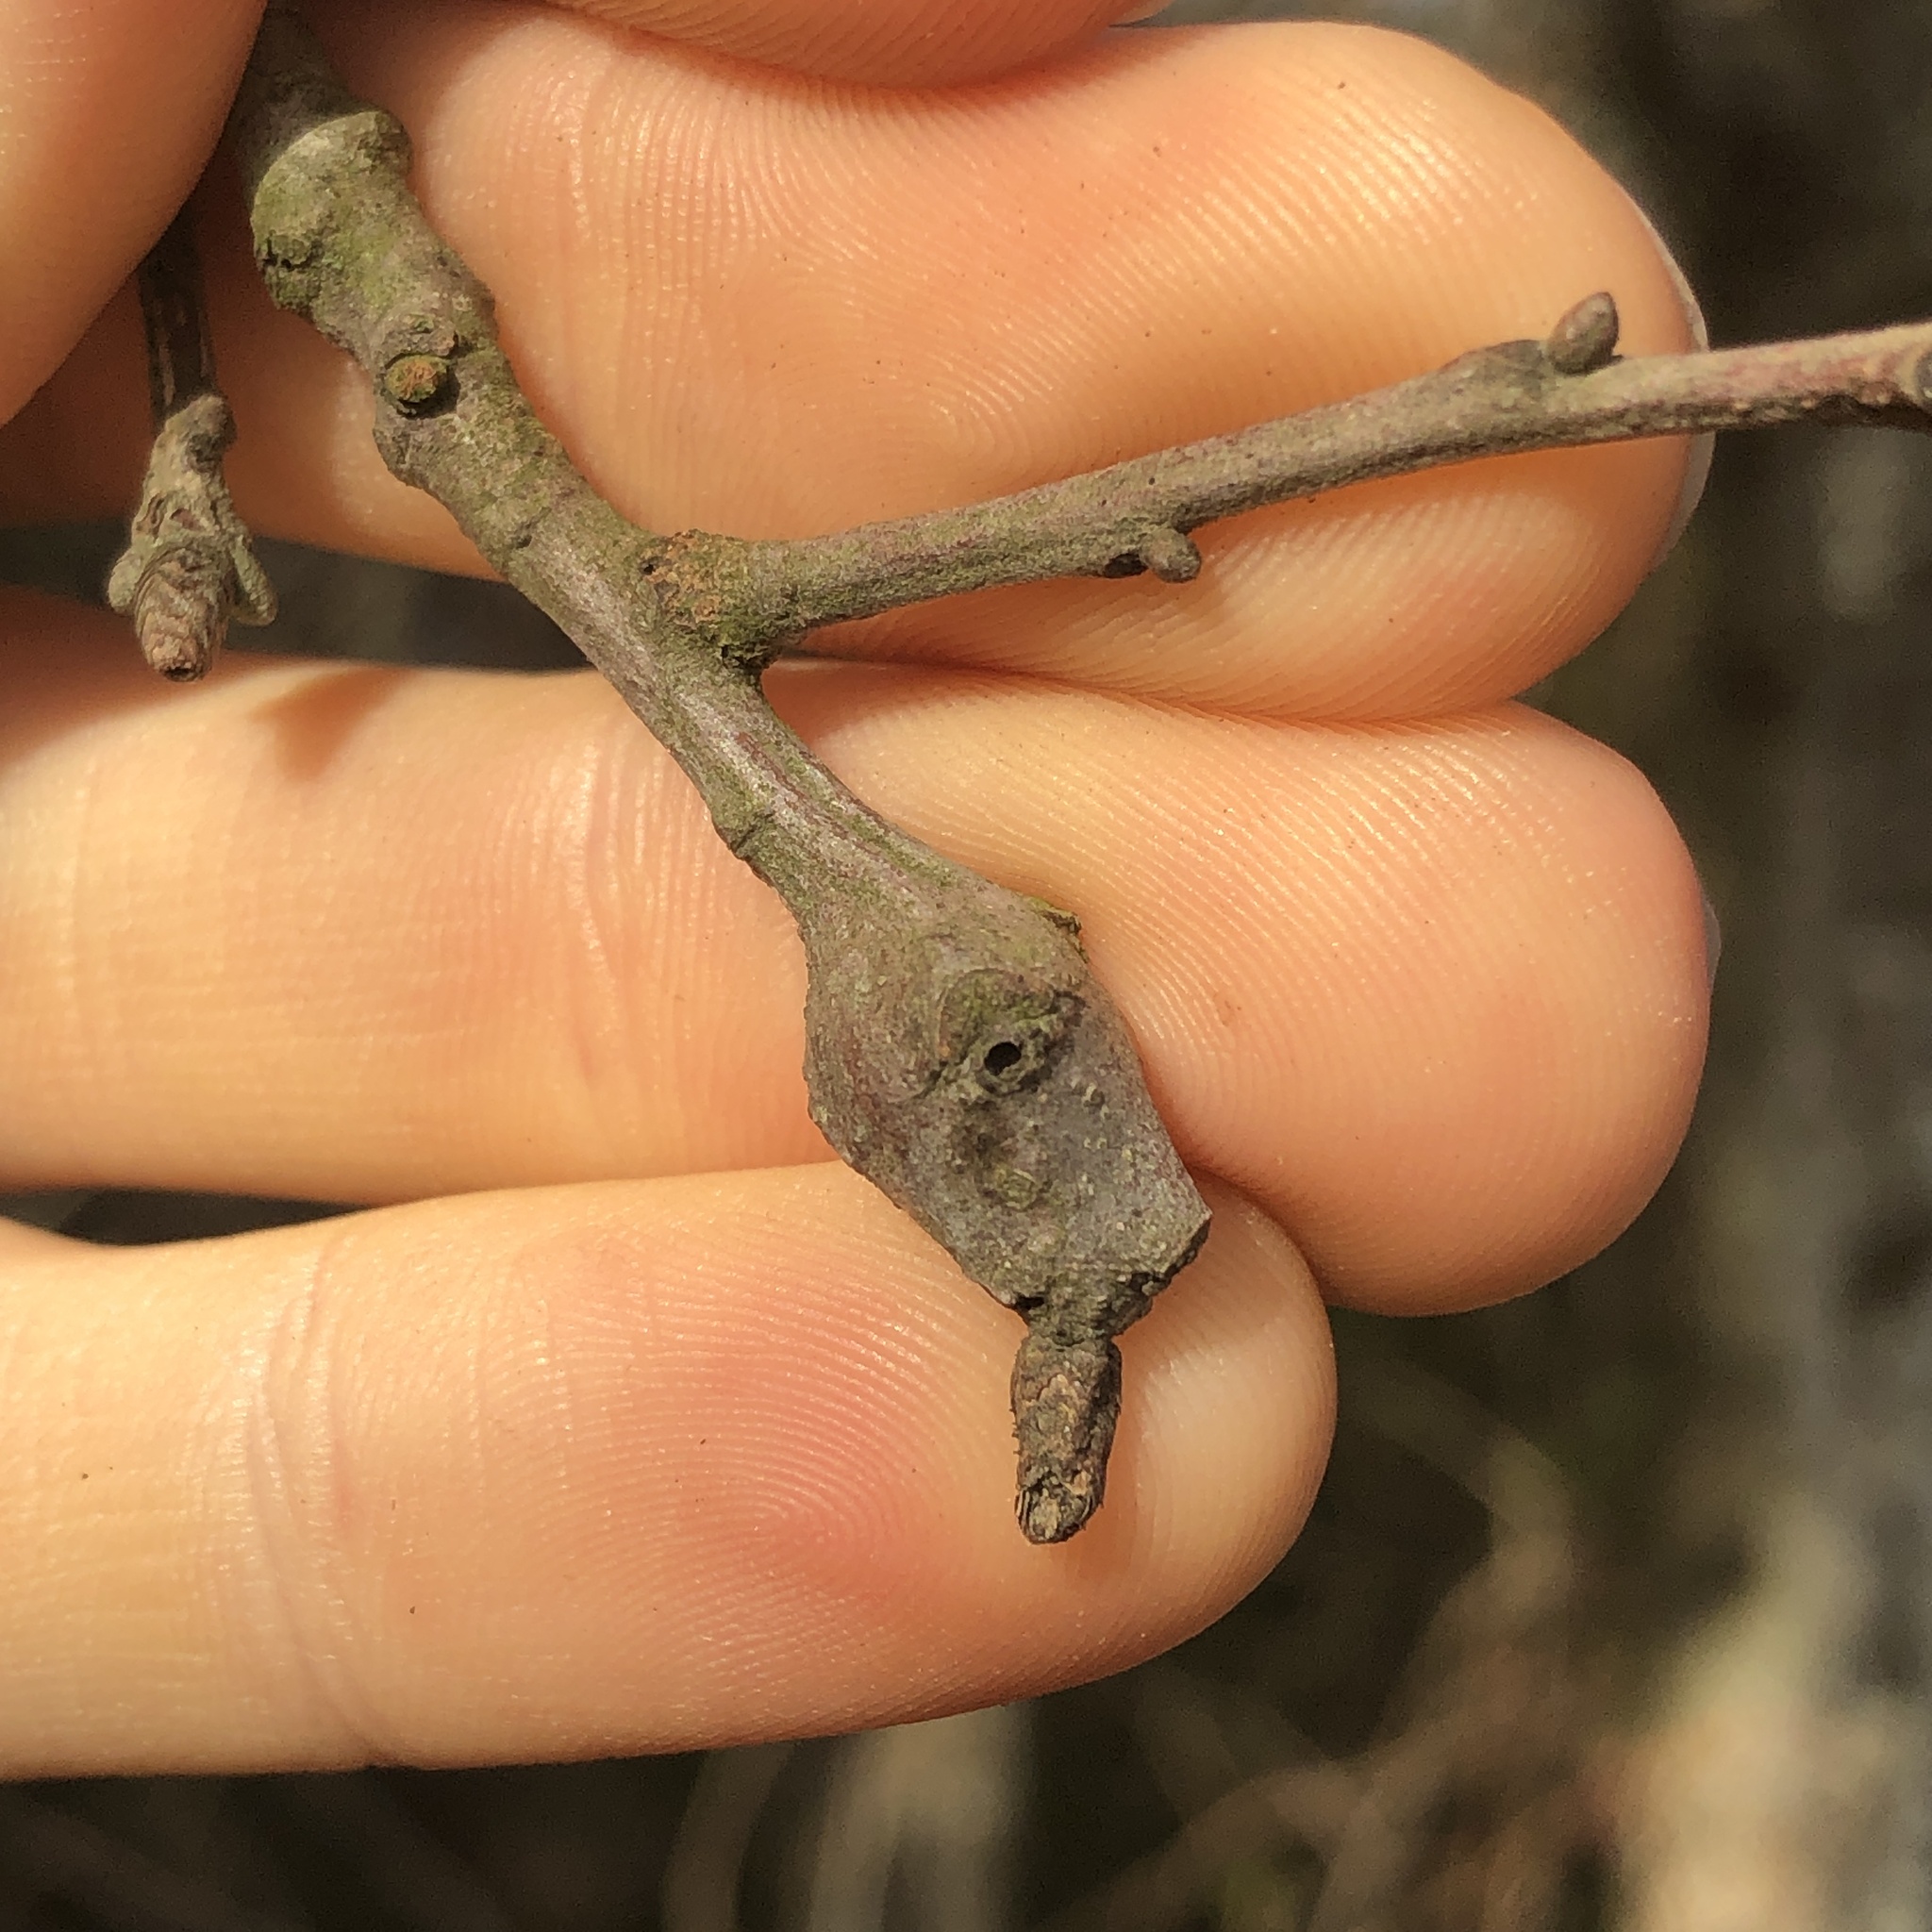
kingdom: Animalia
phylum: Arthropoda
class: Insecta
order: Hymenoptera
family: Cynipidae
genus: Zapatella
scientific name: Zapatella quercusphellos
